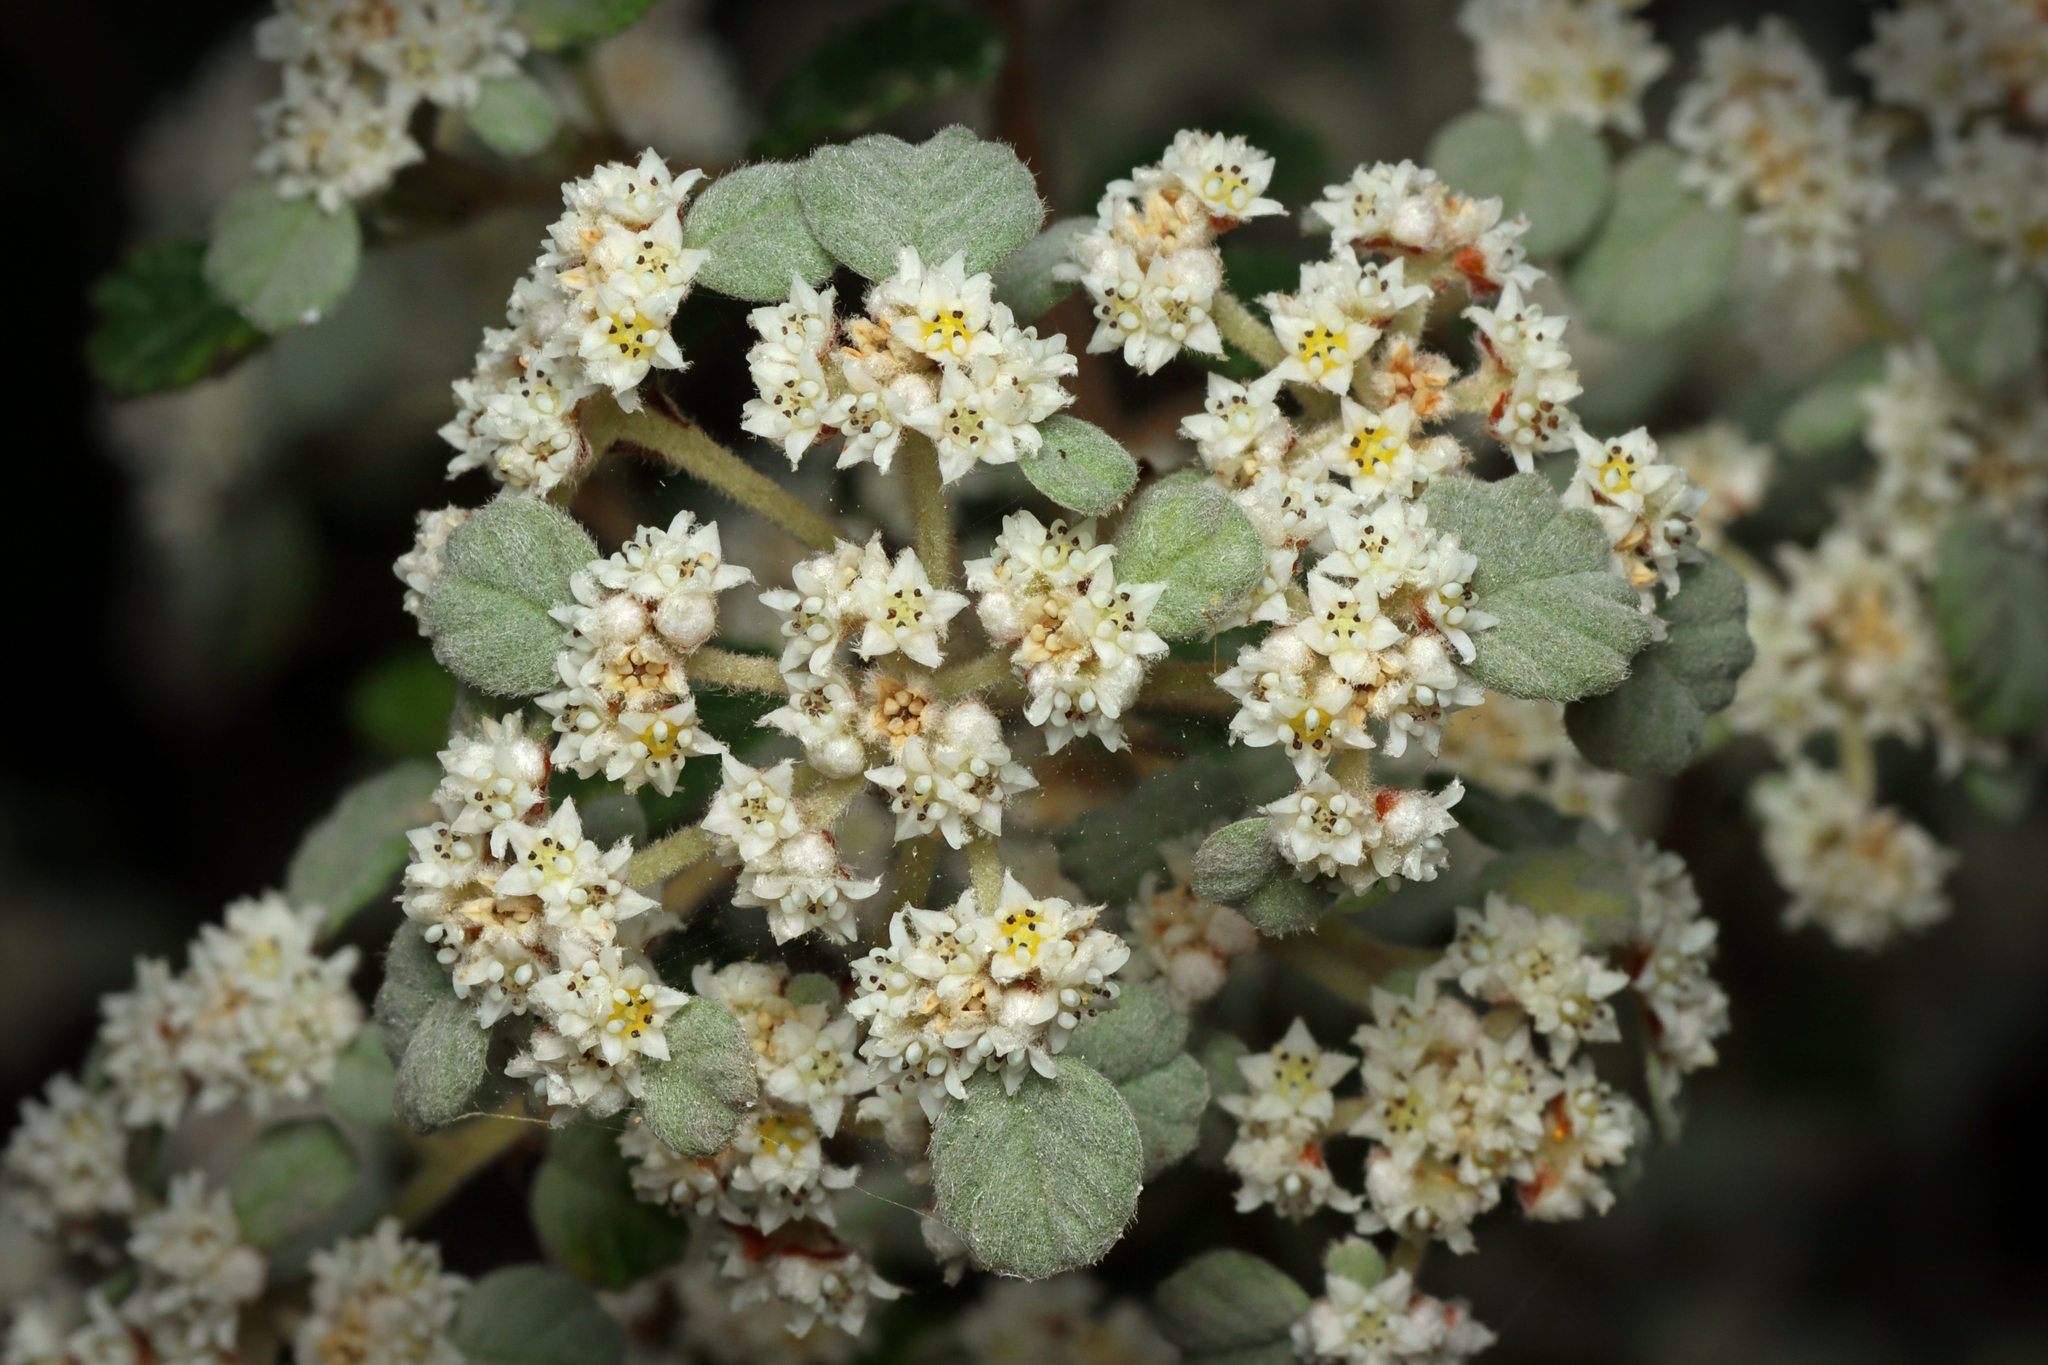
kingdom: Plantae
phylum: Tracheophyta
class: Magnoliopsida
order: Rosales
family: Rhamnaceae
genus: Spyridium
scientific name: Spyridium parvifolium
